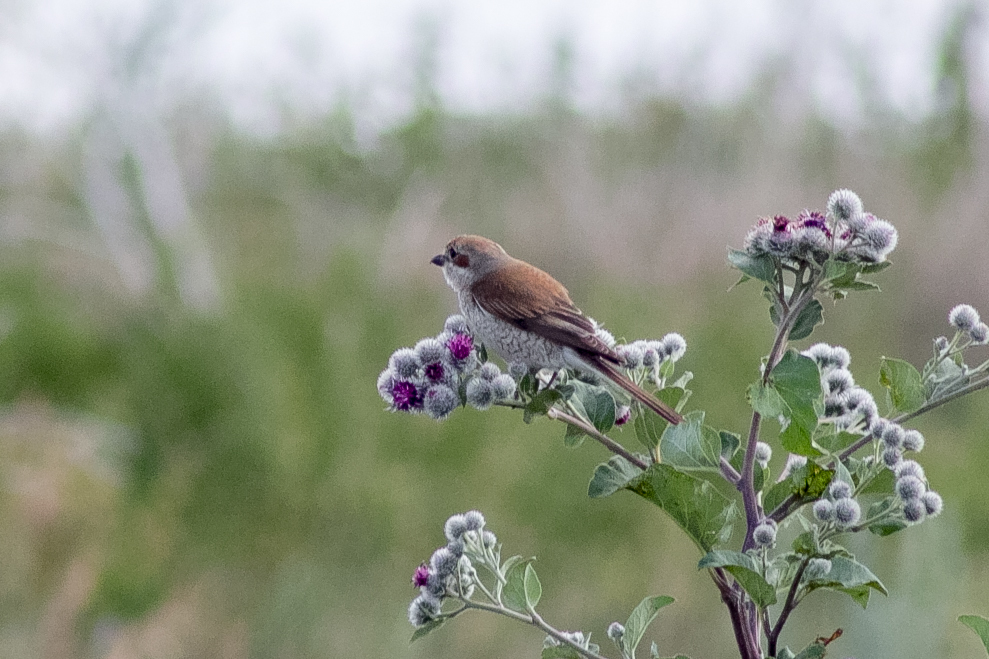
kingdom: Animalia
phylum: Chordata
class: Aves
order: Passeriformes
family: Laniidae
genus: Lanius
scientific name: Lanius collurio
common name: Red-backed shrike
